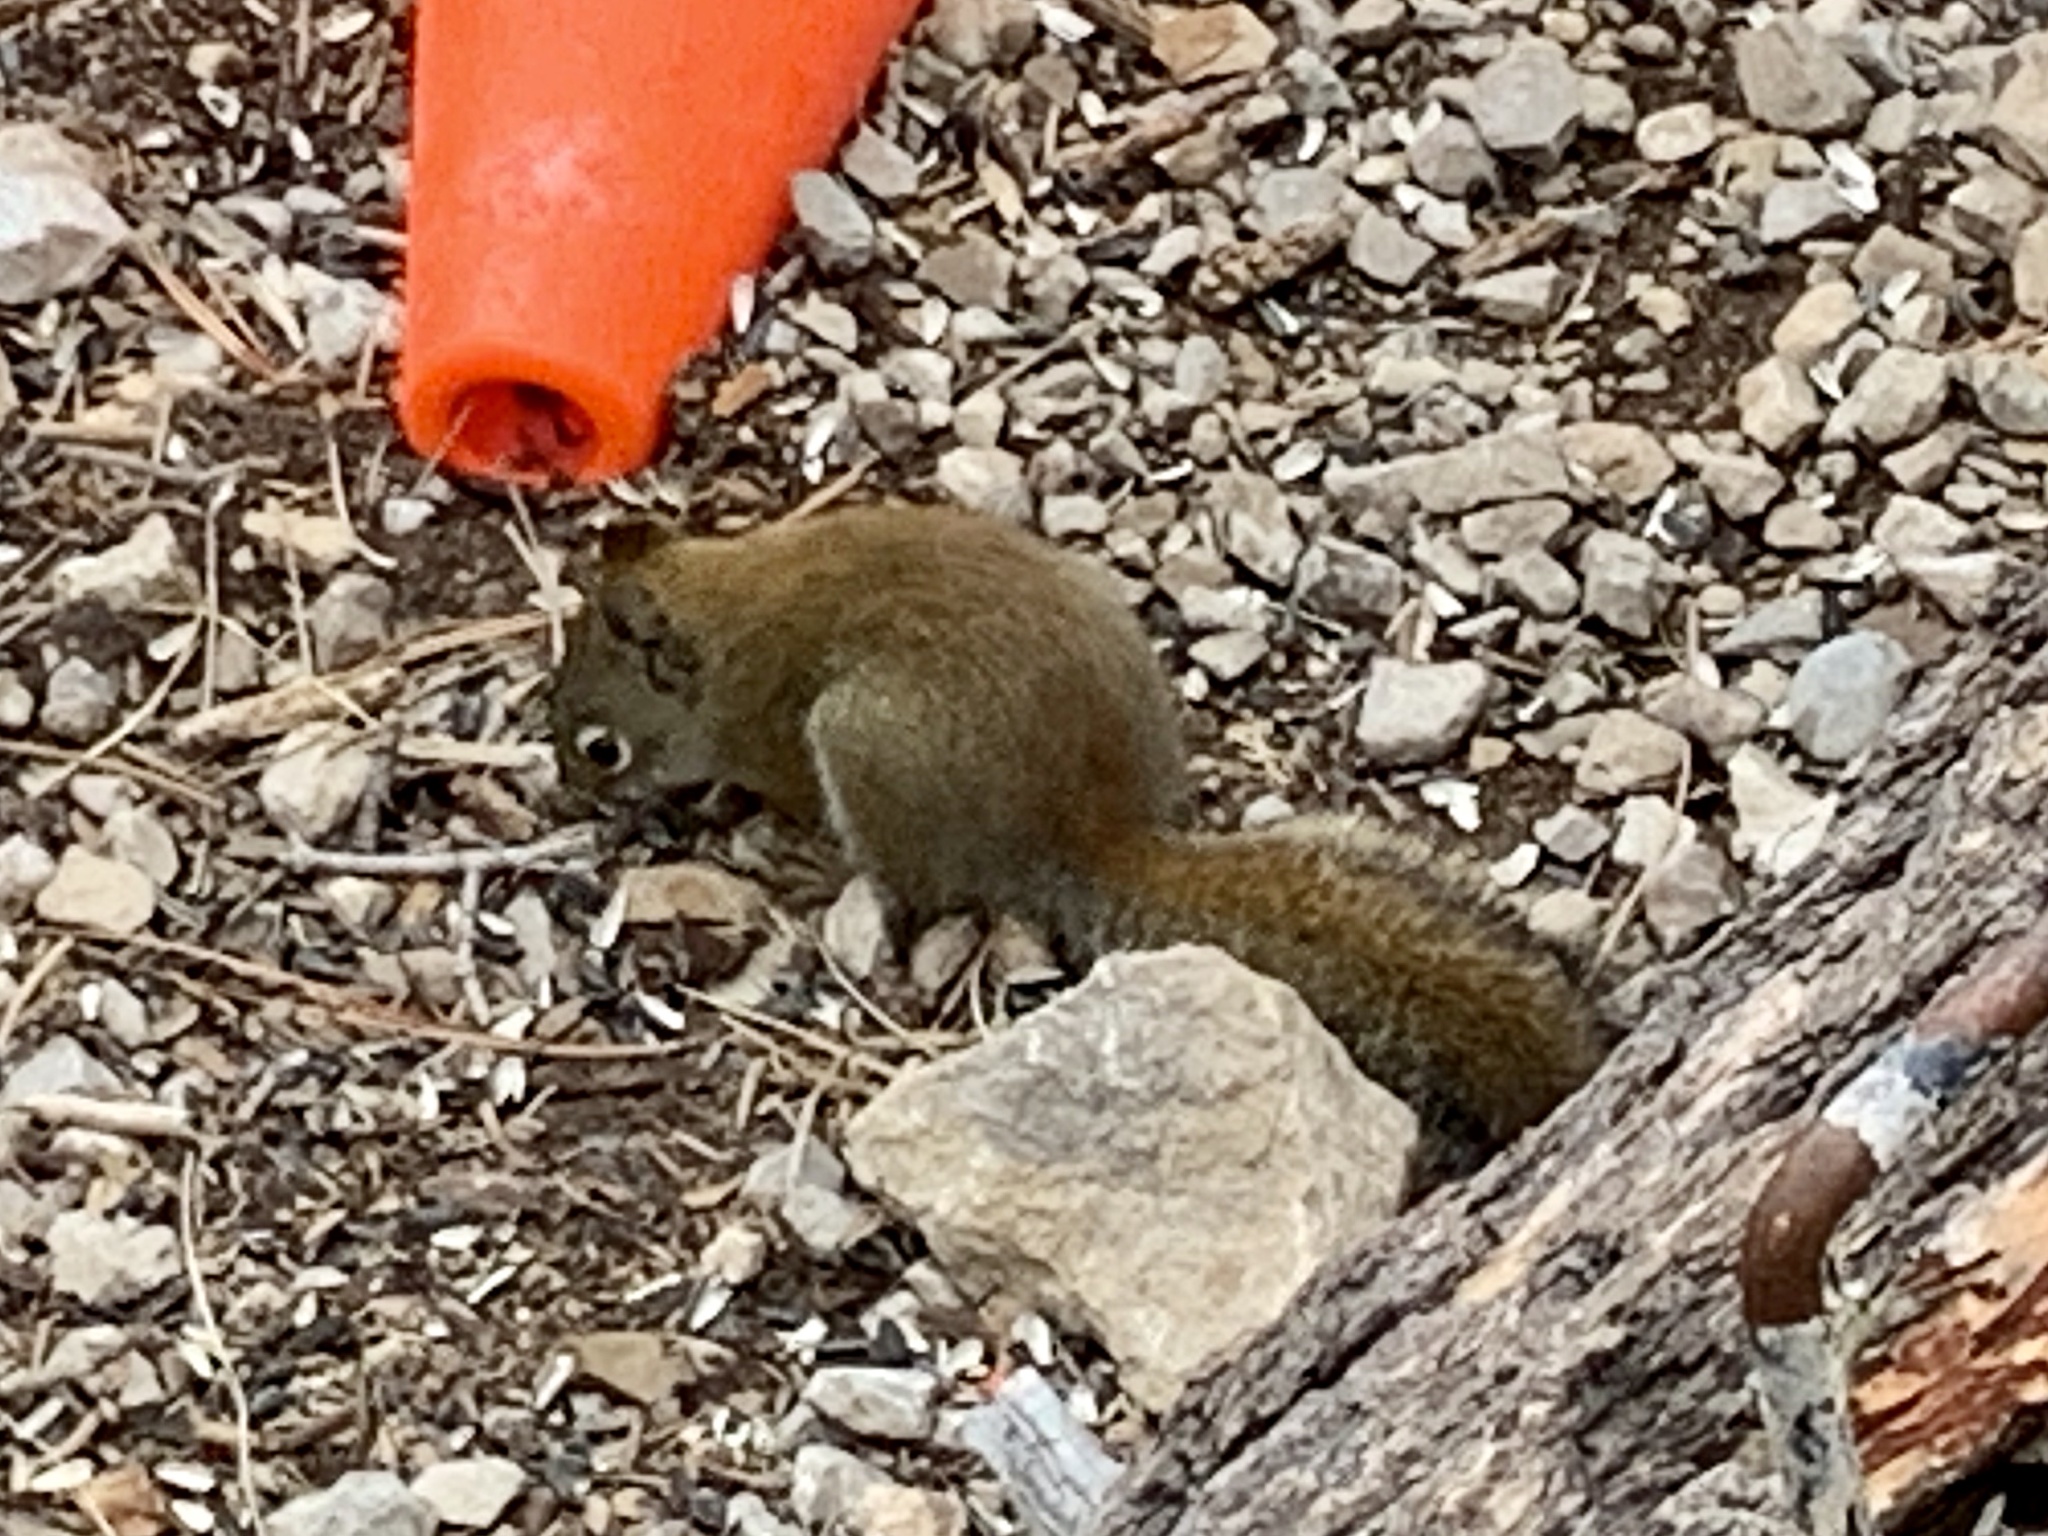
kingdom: Animalia
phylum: Chordata
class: Mammalia
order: Rodentia
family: Sciuridae
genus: Tamiasciurus
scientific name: Tamiasciurus hudsonicus
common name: Red squirrel
